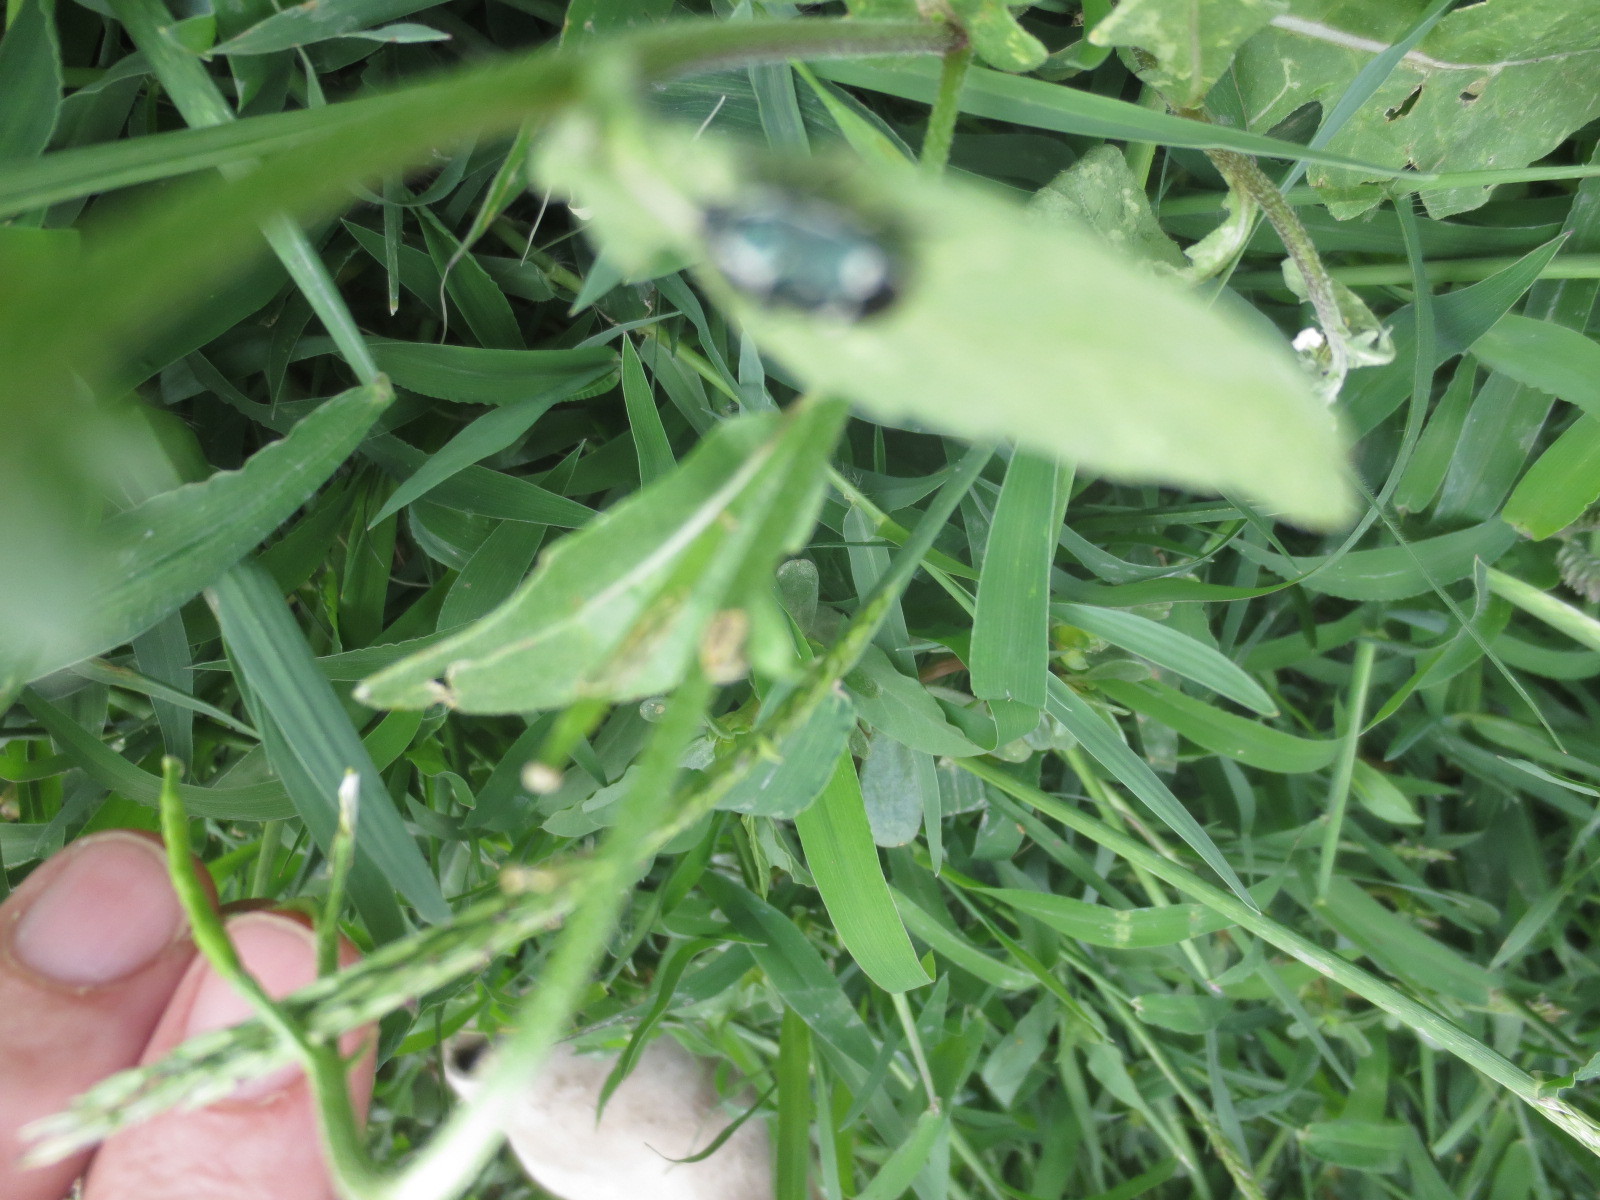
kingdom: Animalia
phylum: Arthropoda
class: Insecta
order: Hemiptera
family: Pentatomidae
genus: Eurydema
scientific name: Eurydema oleracea
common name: Cabbage bug
